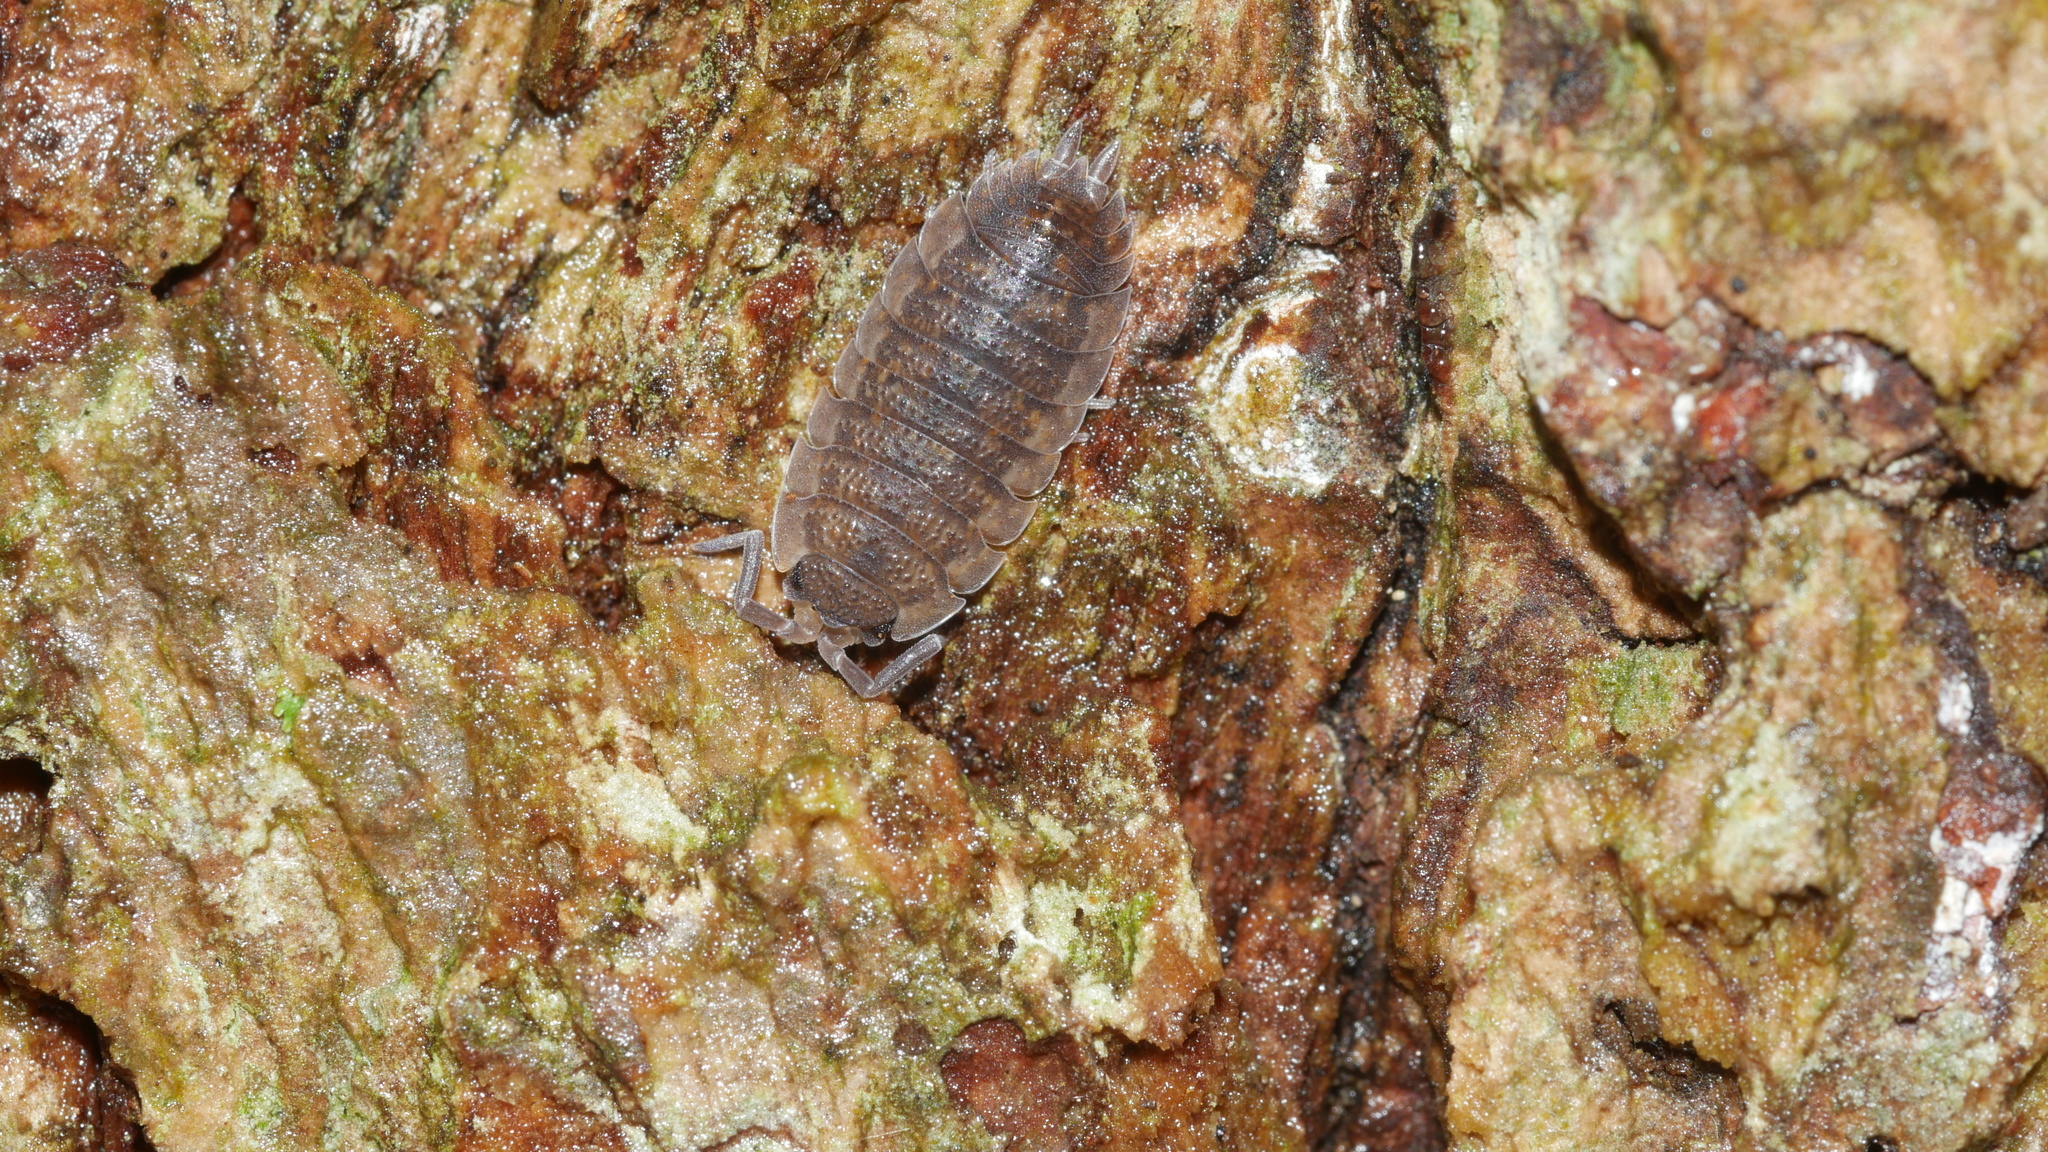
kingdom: Animalia
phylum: Arthropoda
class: Malacostraca
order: Isopoda
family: Porcellionidae
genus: Porcellio
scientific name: Porcellio scaber
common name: Common rough woodlouse
